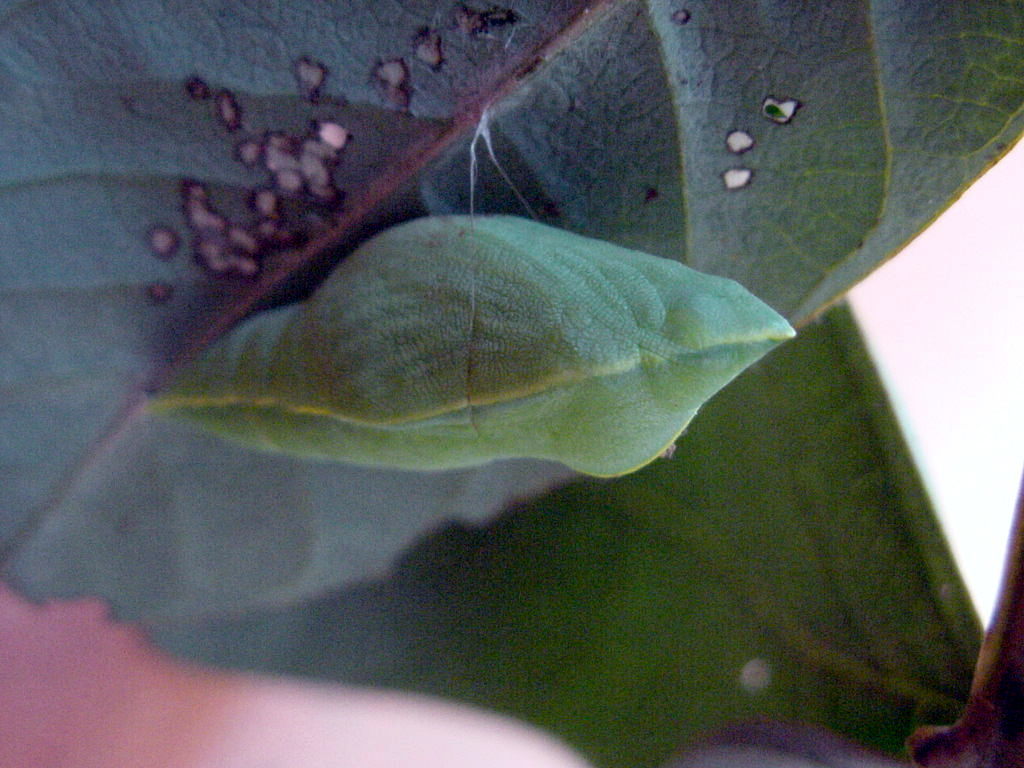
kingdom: Animalia
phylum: Arthropoda
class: Insecta
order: Lepidoptera
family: Pieridae
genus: Catopsilia
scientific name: Catopsilia pyranthe
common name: Mottled emigrant
